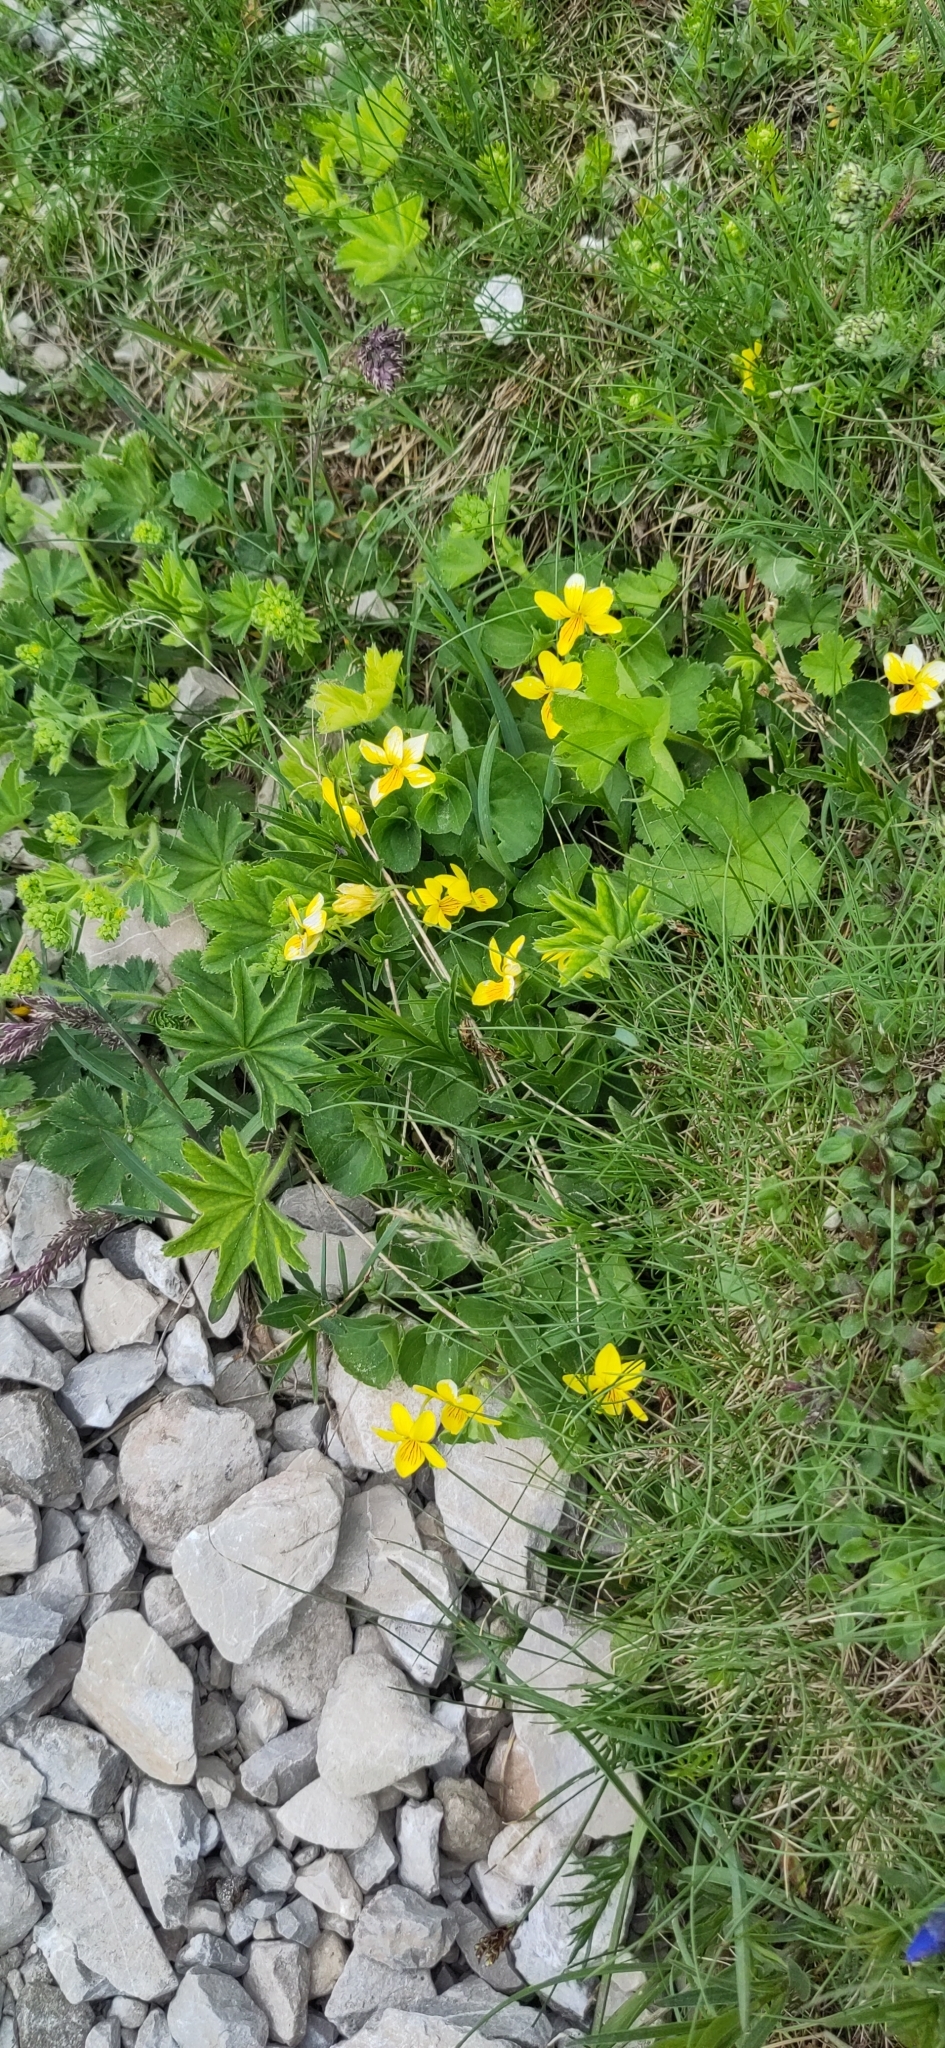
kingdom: Plantae
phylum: Tracheophyta
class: Magnoliopsida
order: Malpighiales
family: Violaceae
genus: Viola
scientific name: Viola biflora
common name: Alpine yellow violet
